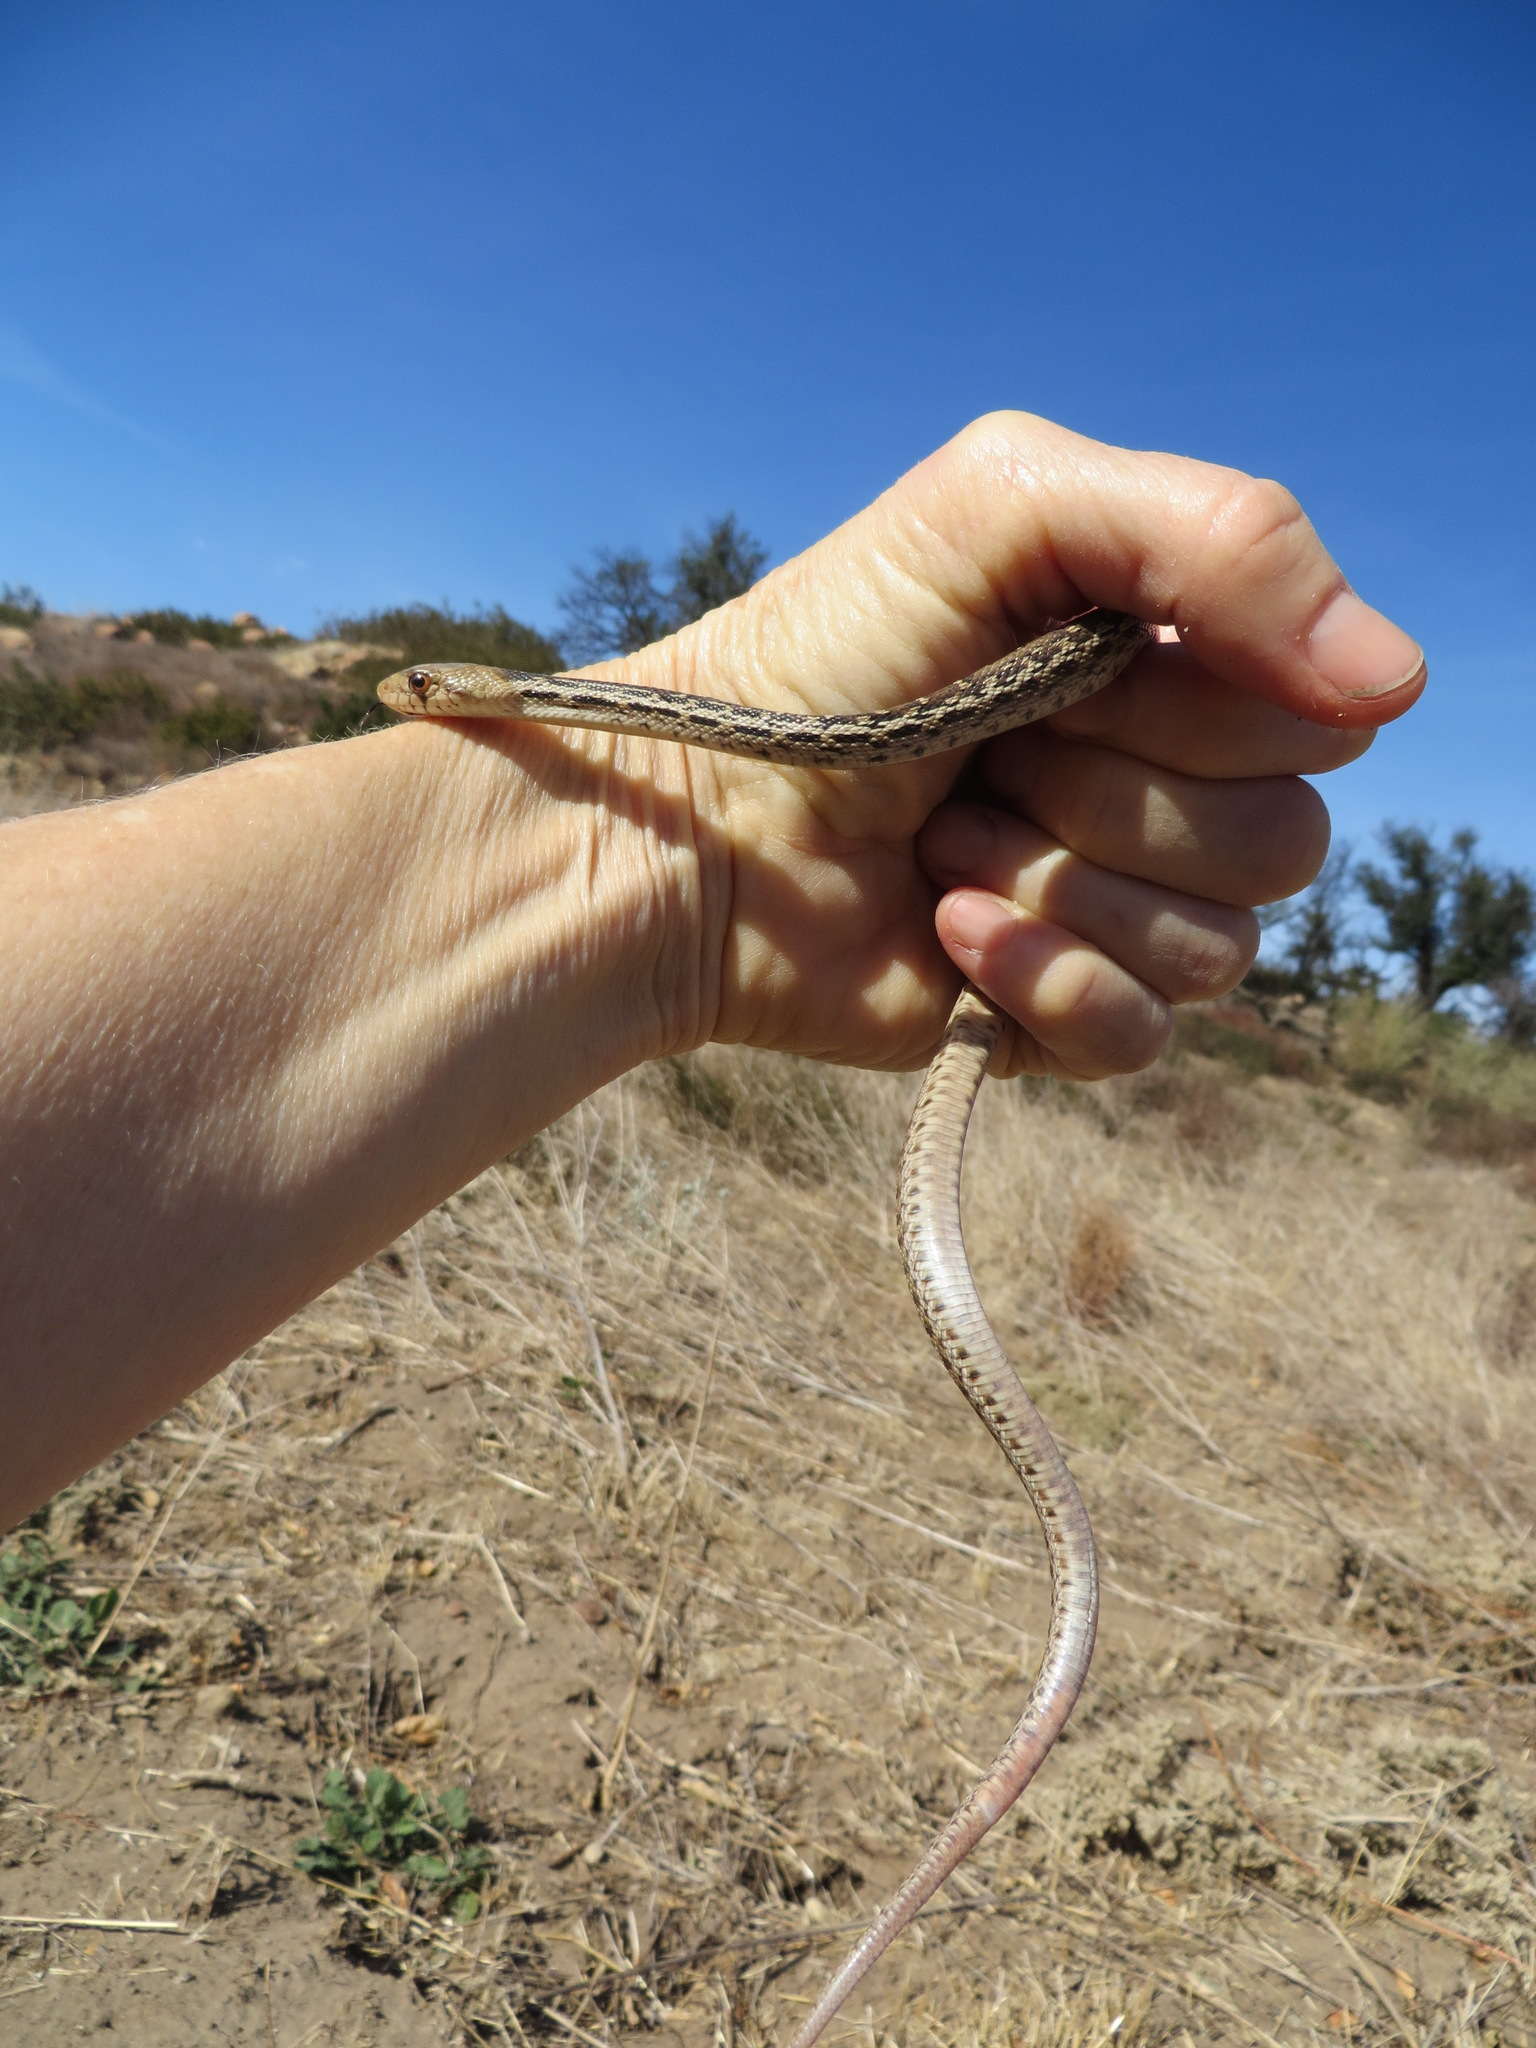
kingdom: Animalia
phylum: Chordata
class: Squamata
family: Colubridae
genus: Pituophis
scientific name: Pituophis catenifer
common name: Gopher snake
